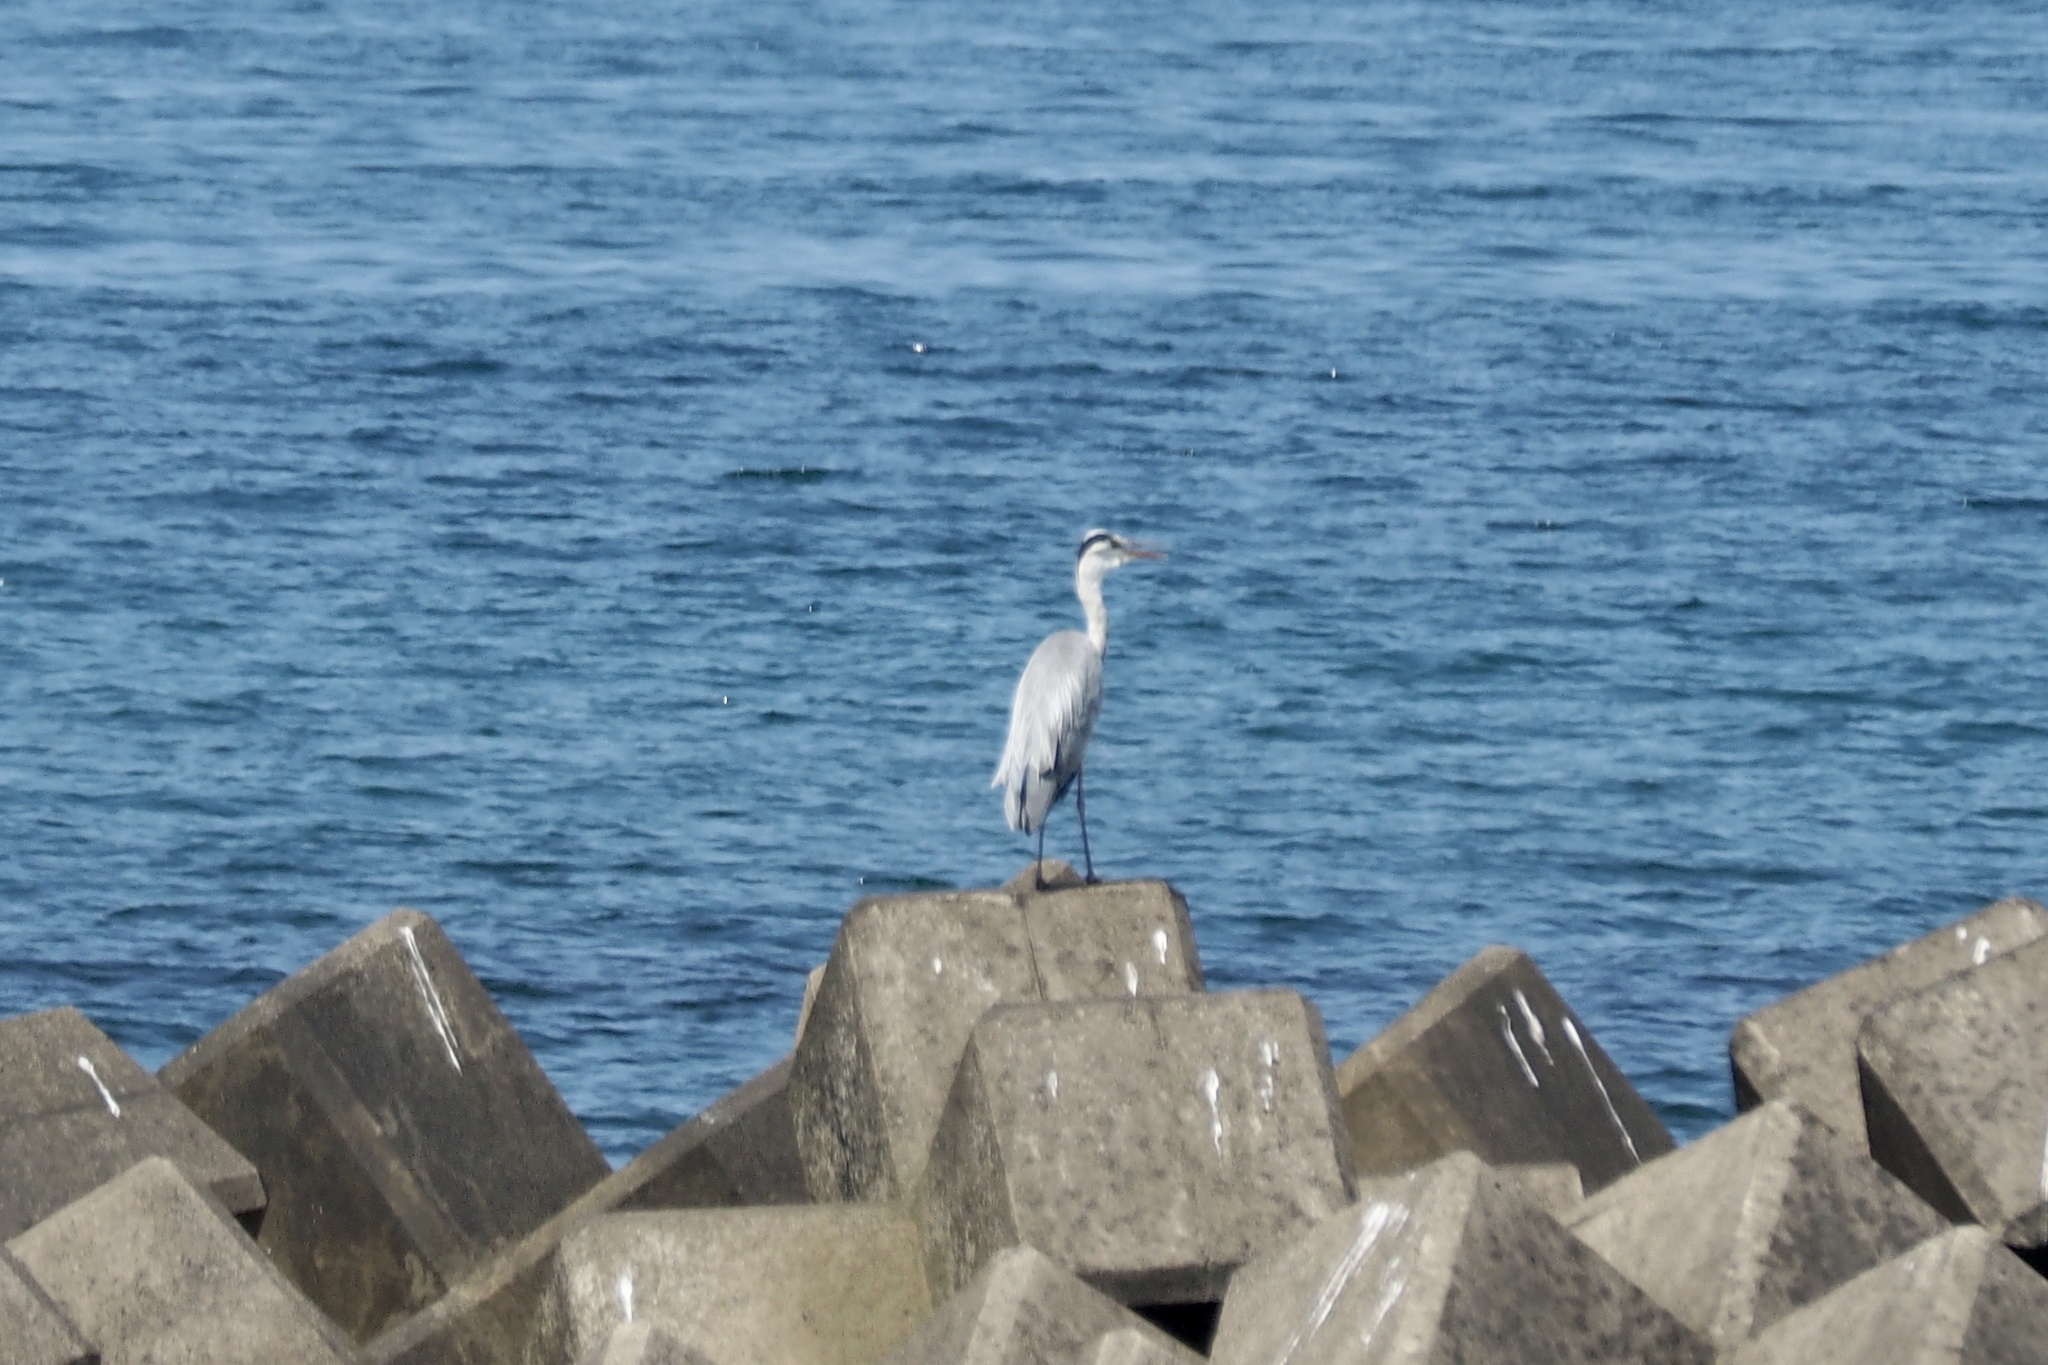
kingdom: Animalia
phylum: Chordata
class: Aves
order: Pelecaniformes
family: Ardeidae
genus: Ardea
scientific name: Ardea cinerea
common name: Grey heron
